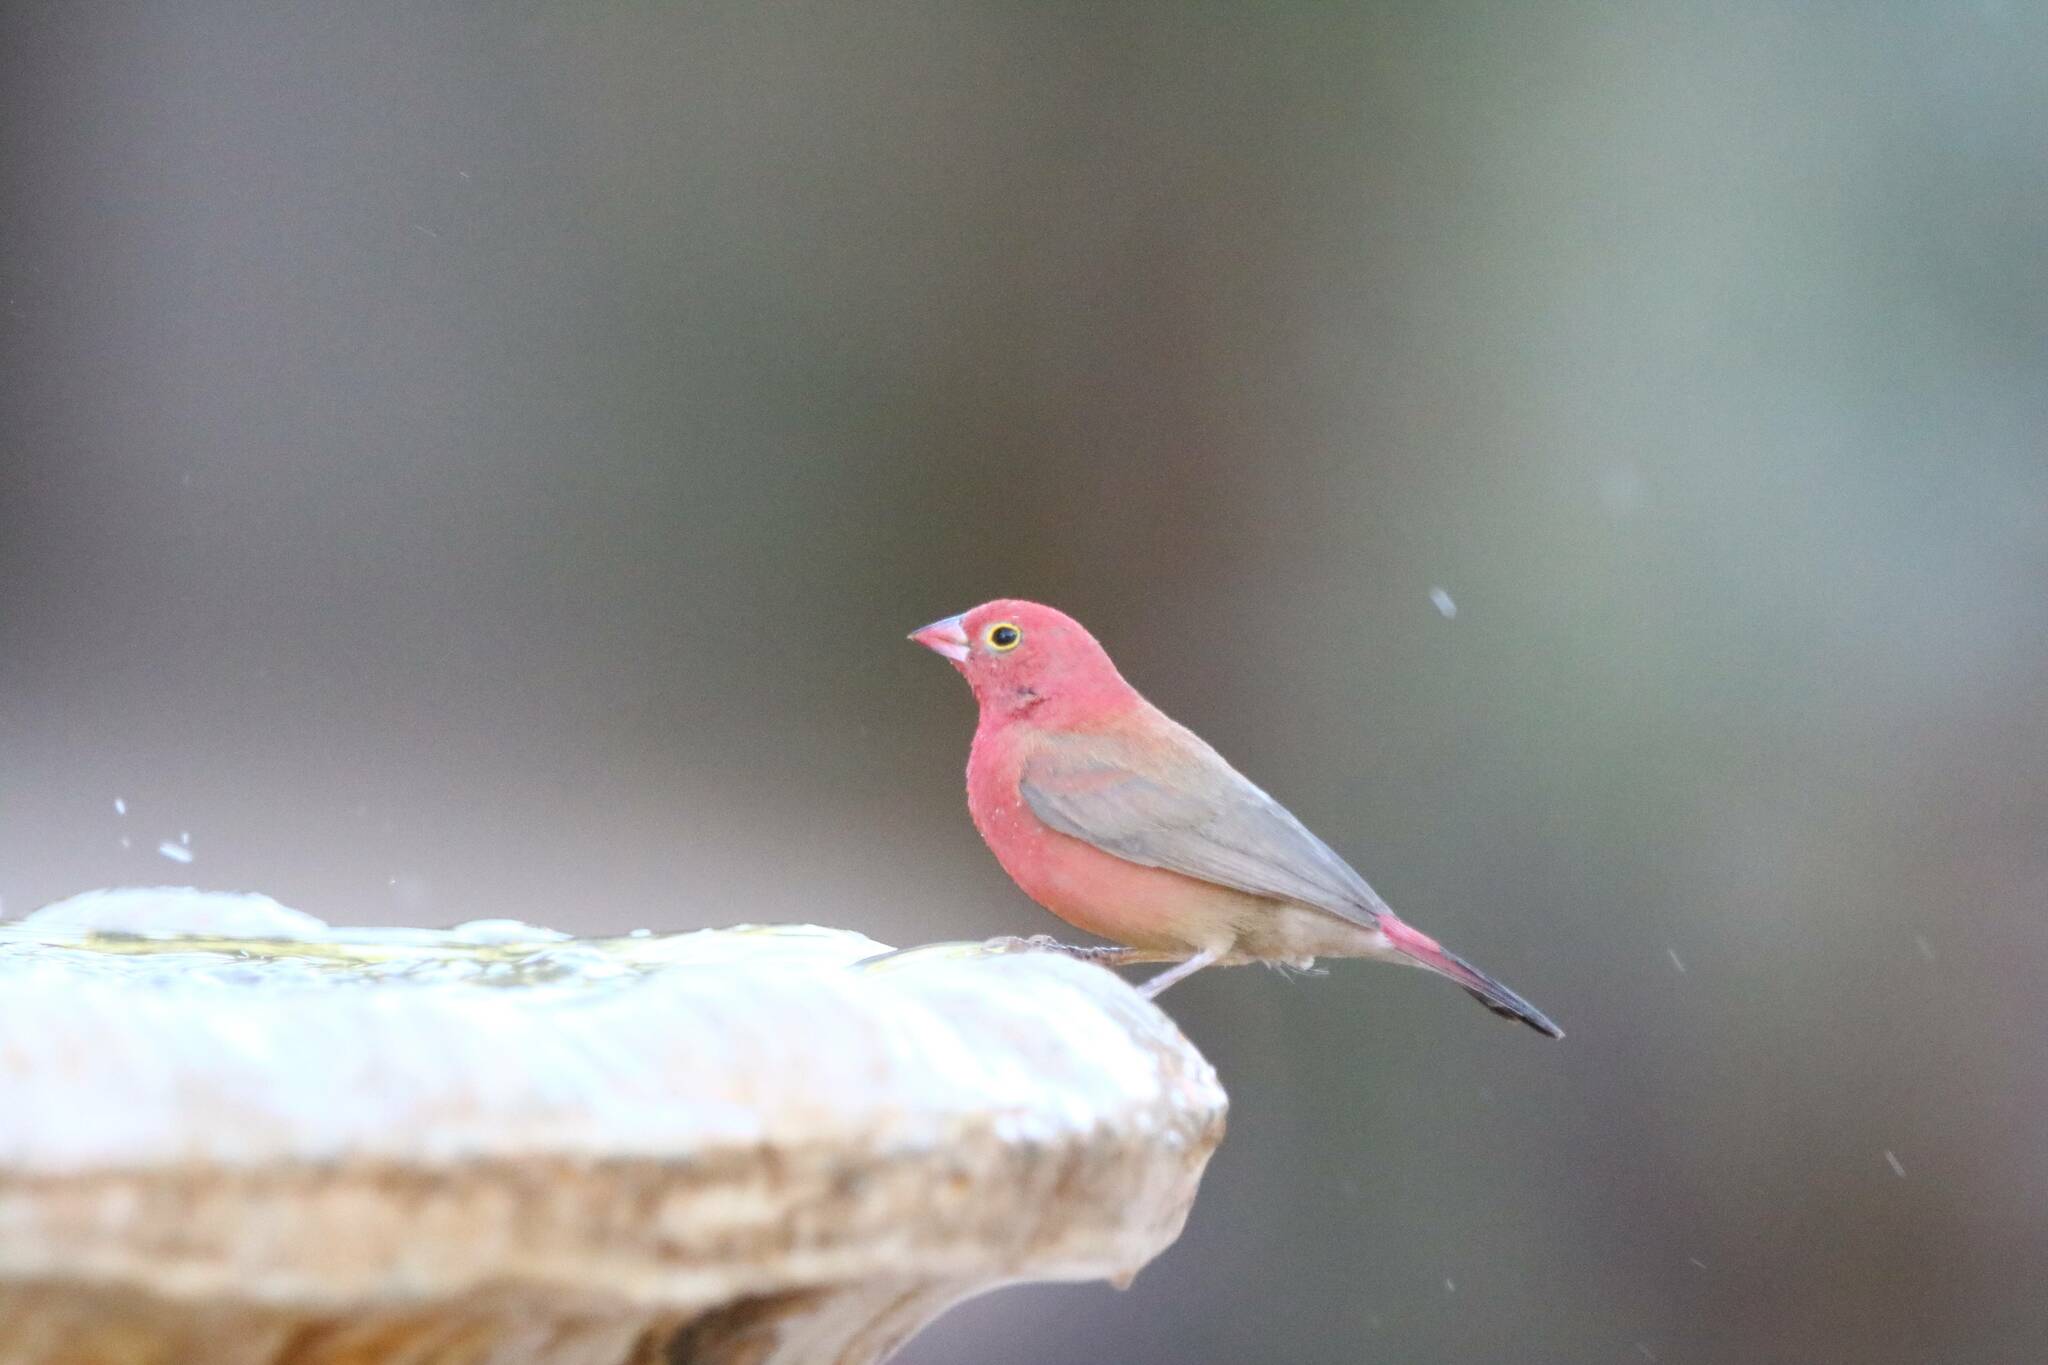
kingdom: Animalia
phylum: Chordata
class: Aves
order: Passeriformes
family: Estrildidae
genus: Lagonosticta
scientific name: Lagonosticta senegala
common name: Red-billed firefinch
